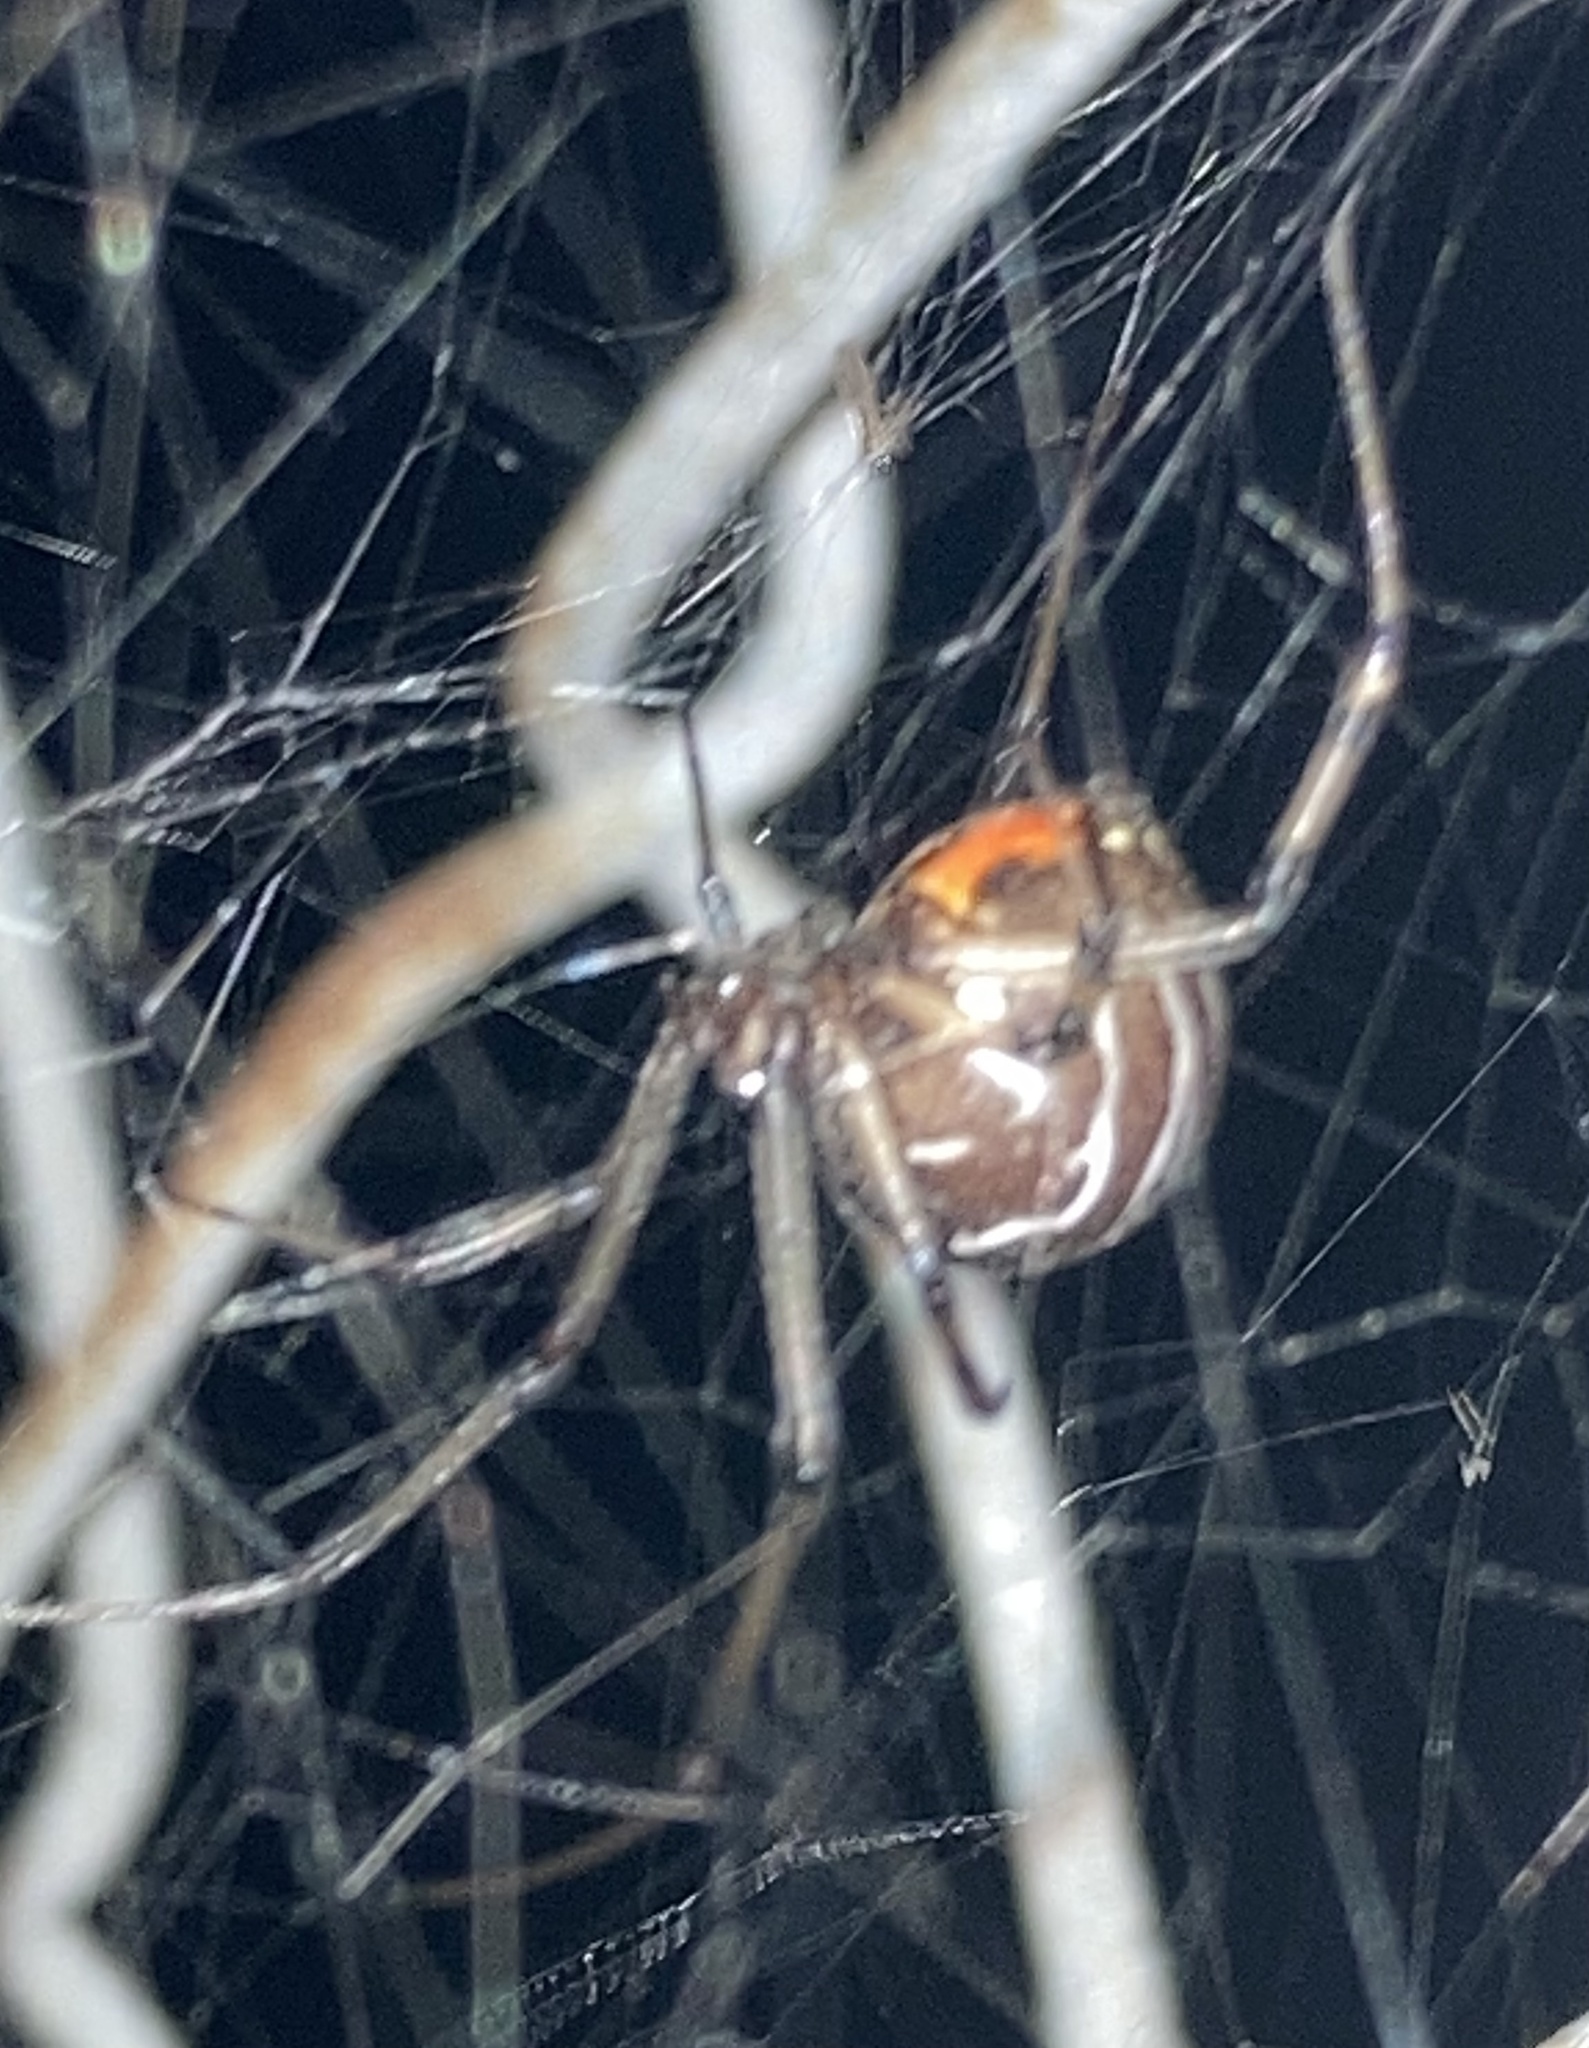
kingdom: Animalia
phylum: Arthropoda
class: Arachnida
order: Araneae
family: Theridiidae
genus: Latrodectus
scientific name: Latrodectus geometricus
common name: Brown widow spider
